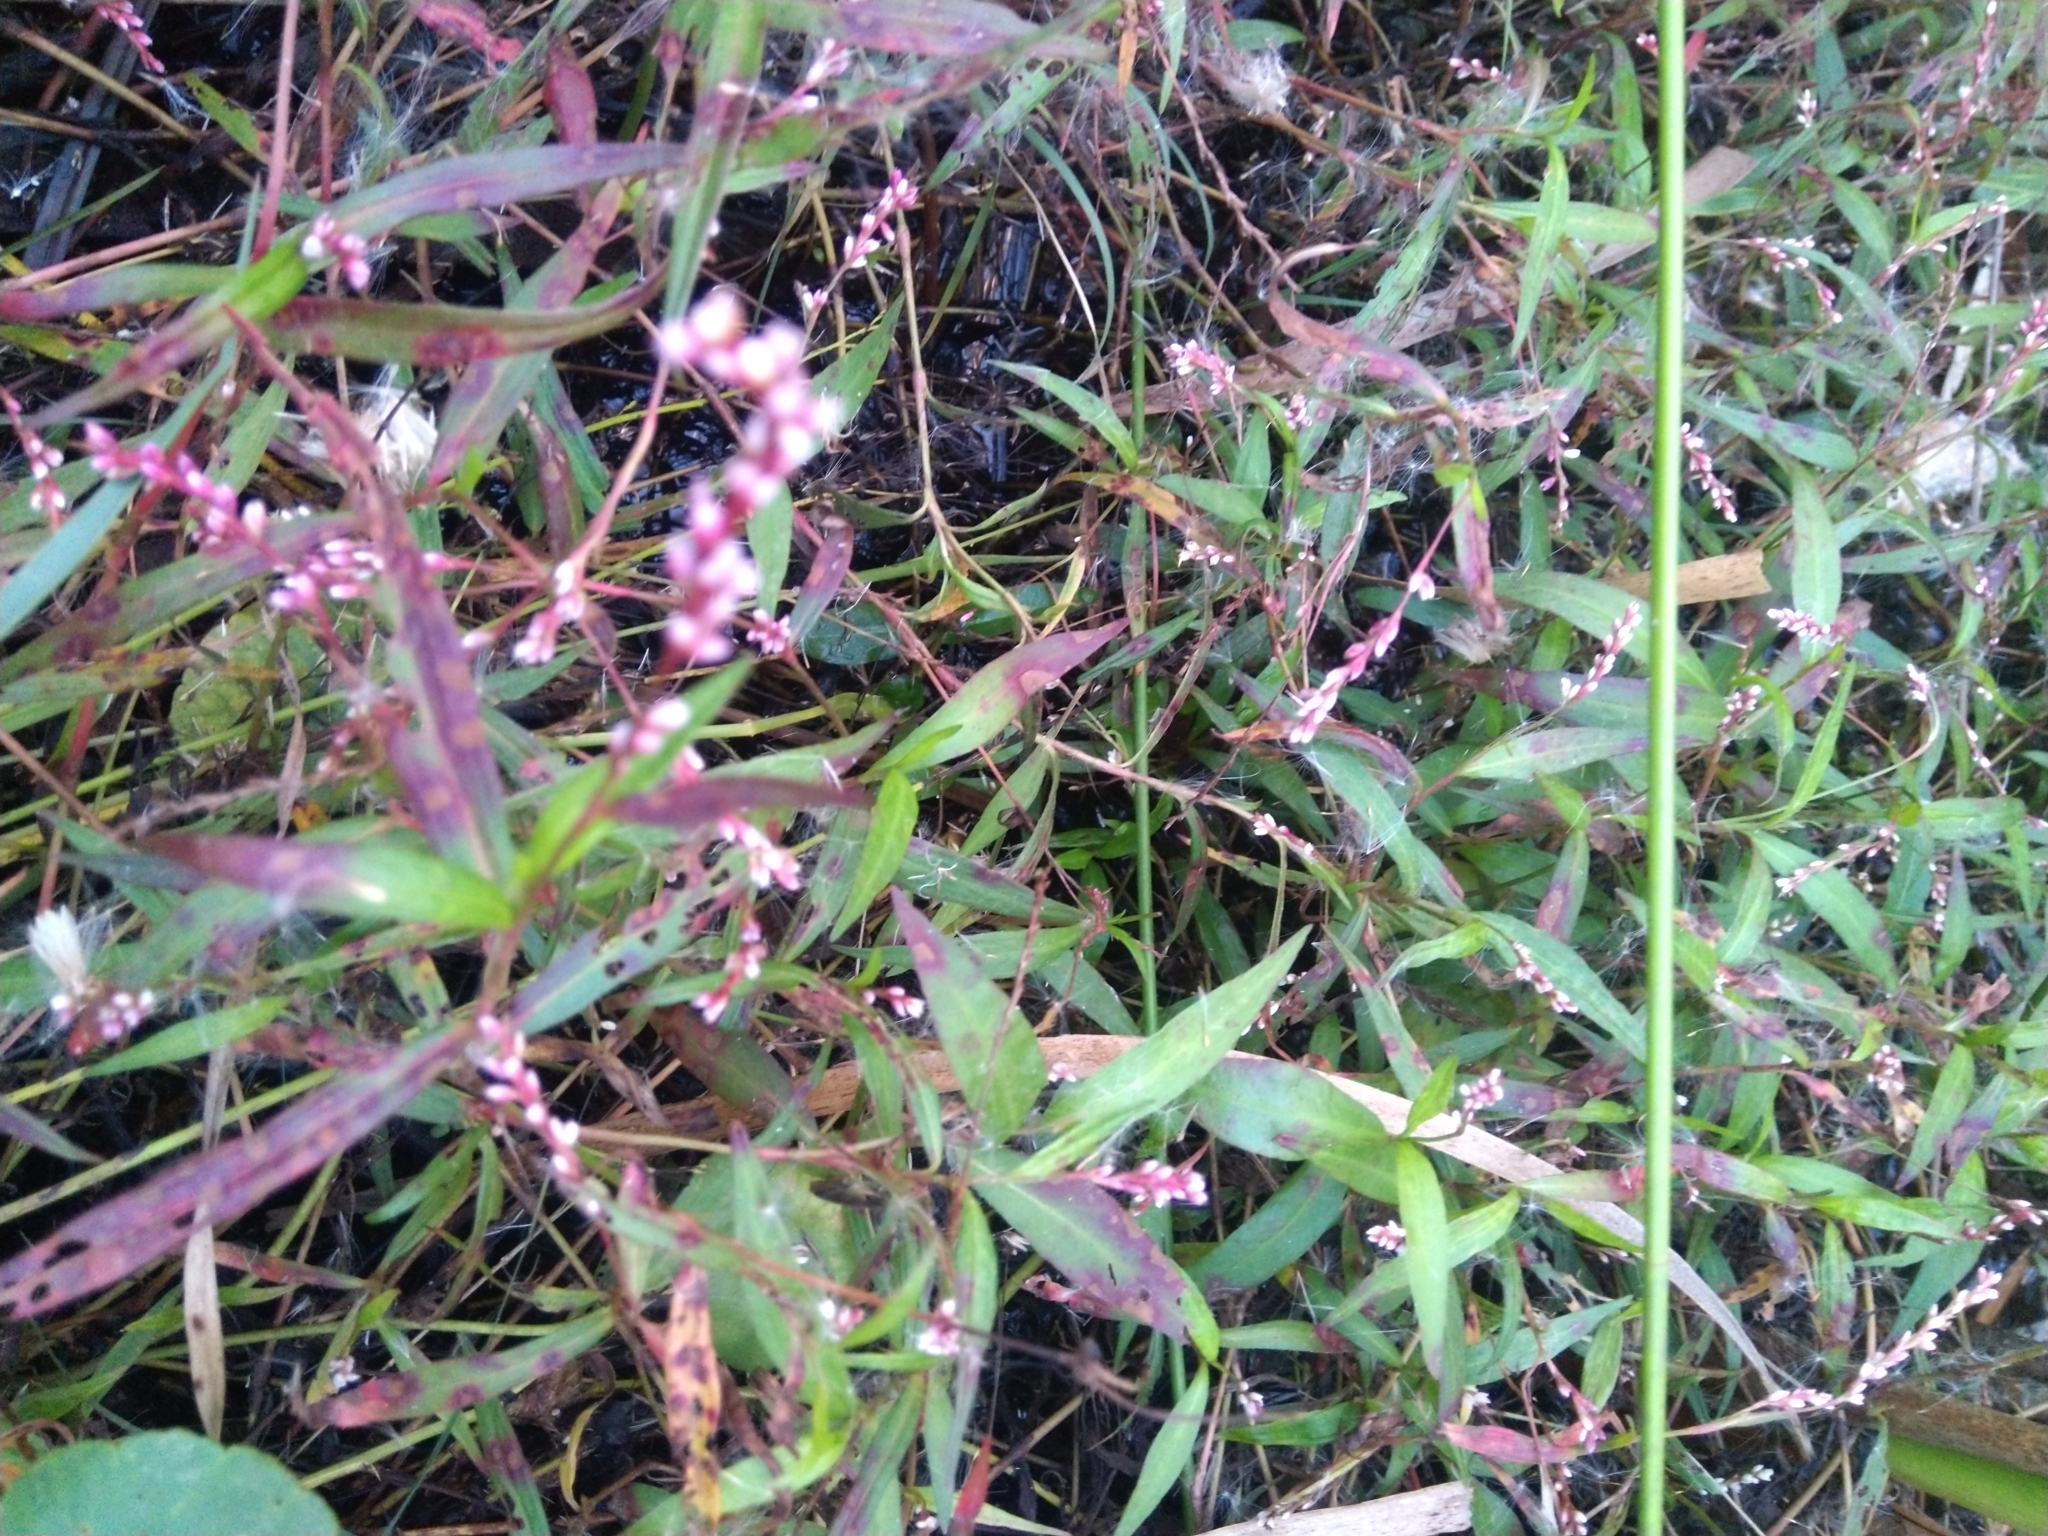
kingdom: Plantae
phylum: Tracheophyta
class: Magnoliopsida
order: Caryophyllales
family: Polygonaceae
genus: Persicaria
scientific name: Persicaria decipiens
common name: Willow-weed
